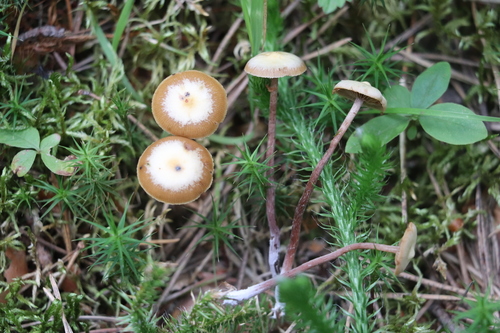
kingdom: Fungi
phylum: Basidiomycota
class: Agaricomycetes
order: Agaricales
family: Strophariaceae
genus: Pholiota
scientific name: Pholiota lignicola
